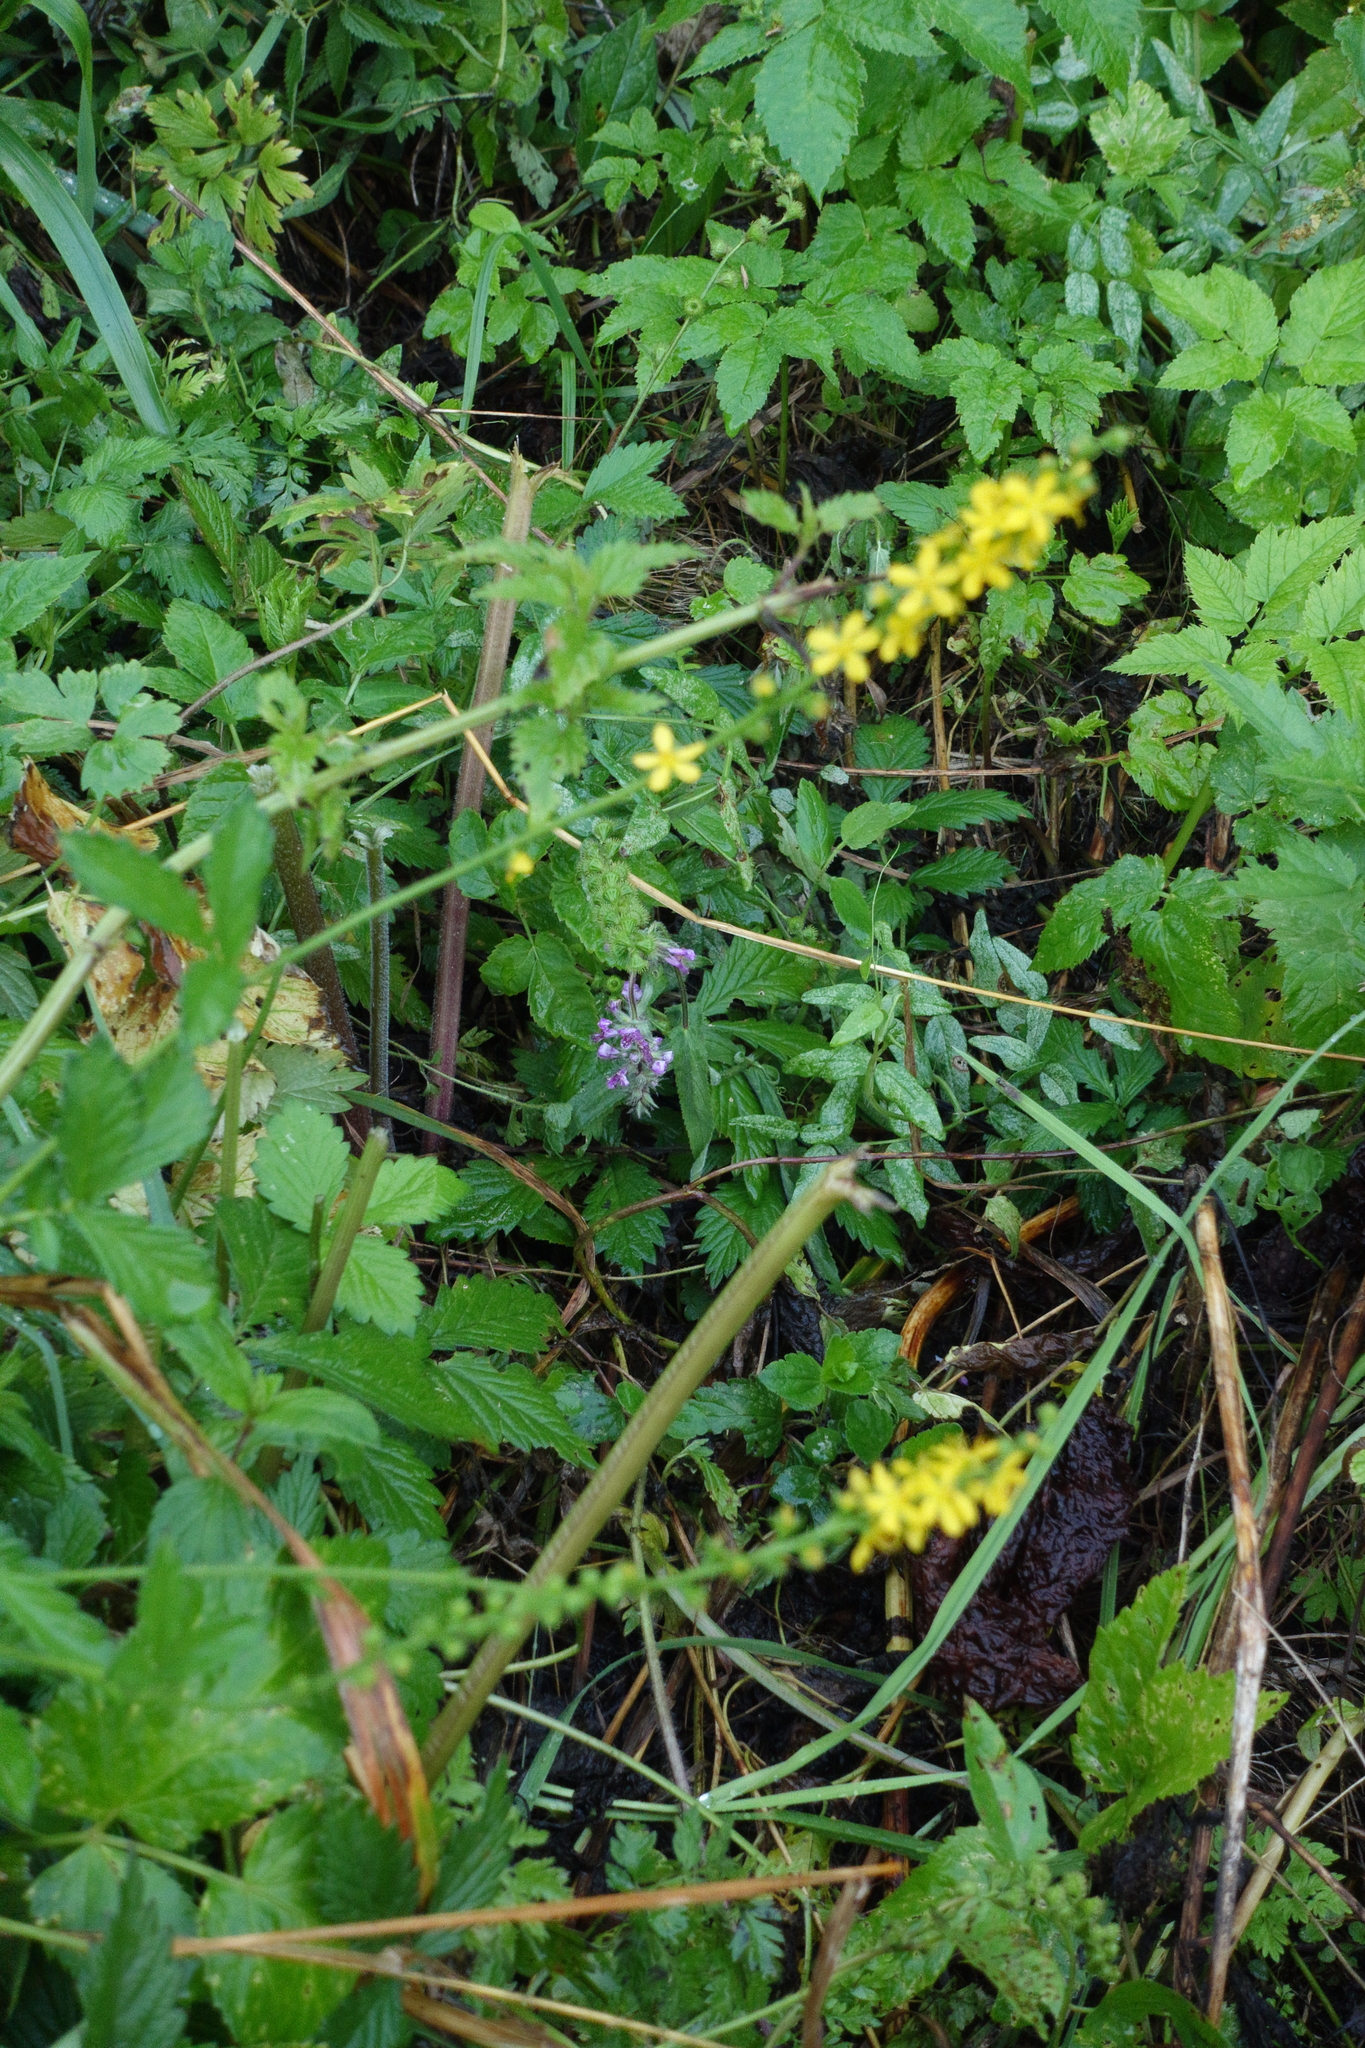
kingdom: Plantae
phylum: Tracheophyta
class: Magnoliopsida
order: Rosales
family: Rosaceae
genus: Agrimonia
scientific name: Agrimonia pilosa
